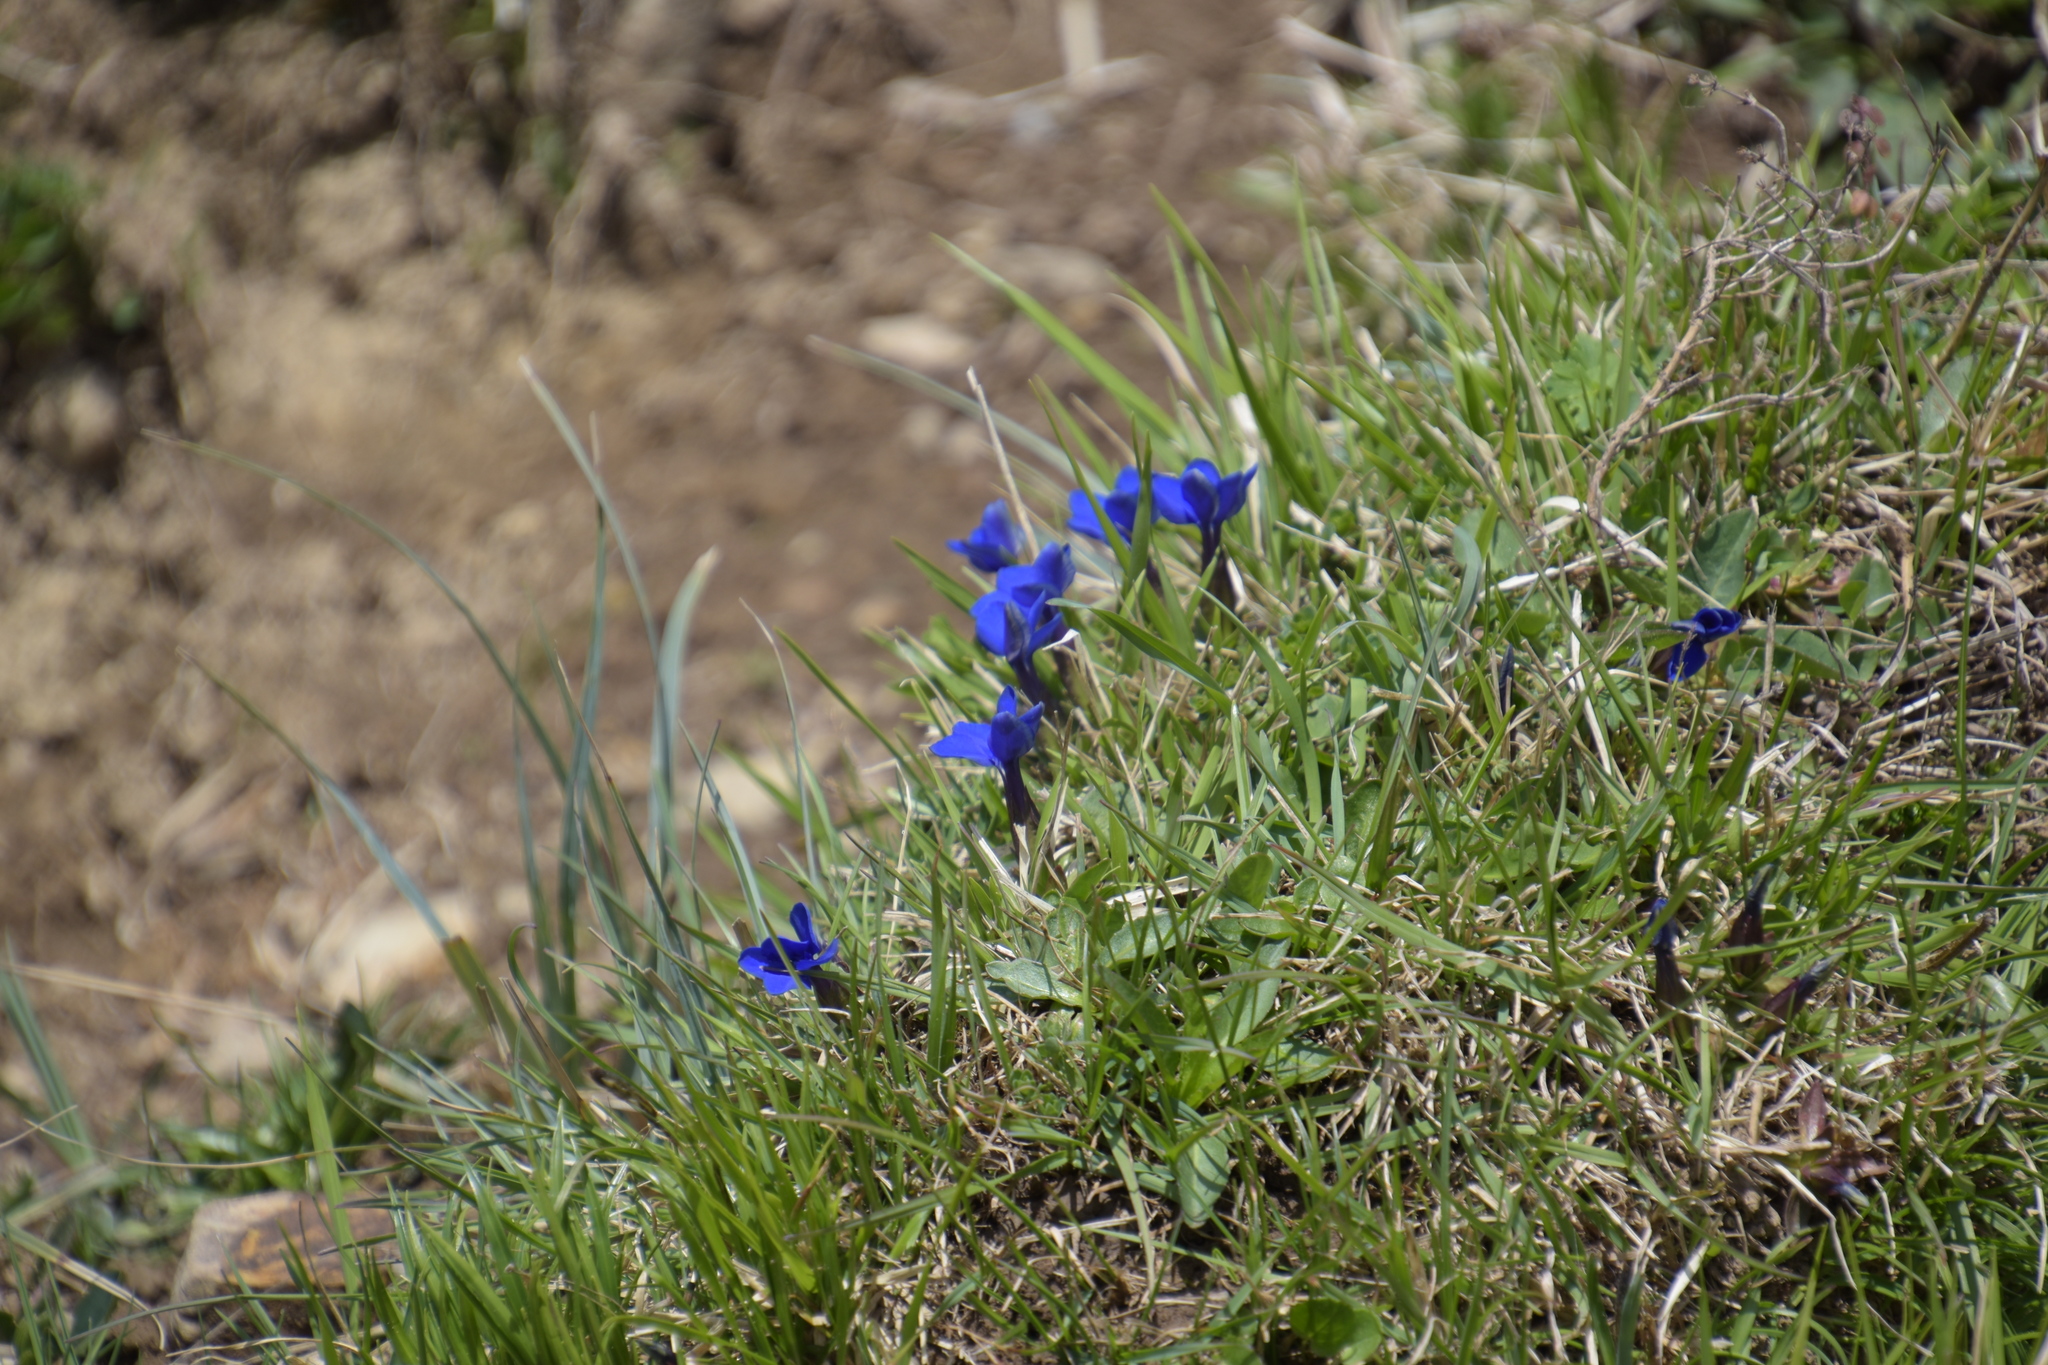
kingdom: Plantae
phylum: Tracheophyta
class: Magnoliopsida
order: Gentianales
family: Gentianaceae
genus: Gentiana
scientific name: Gentiana verna
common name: Spring gentian
